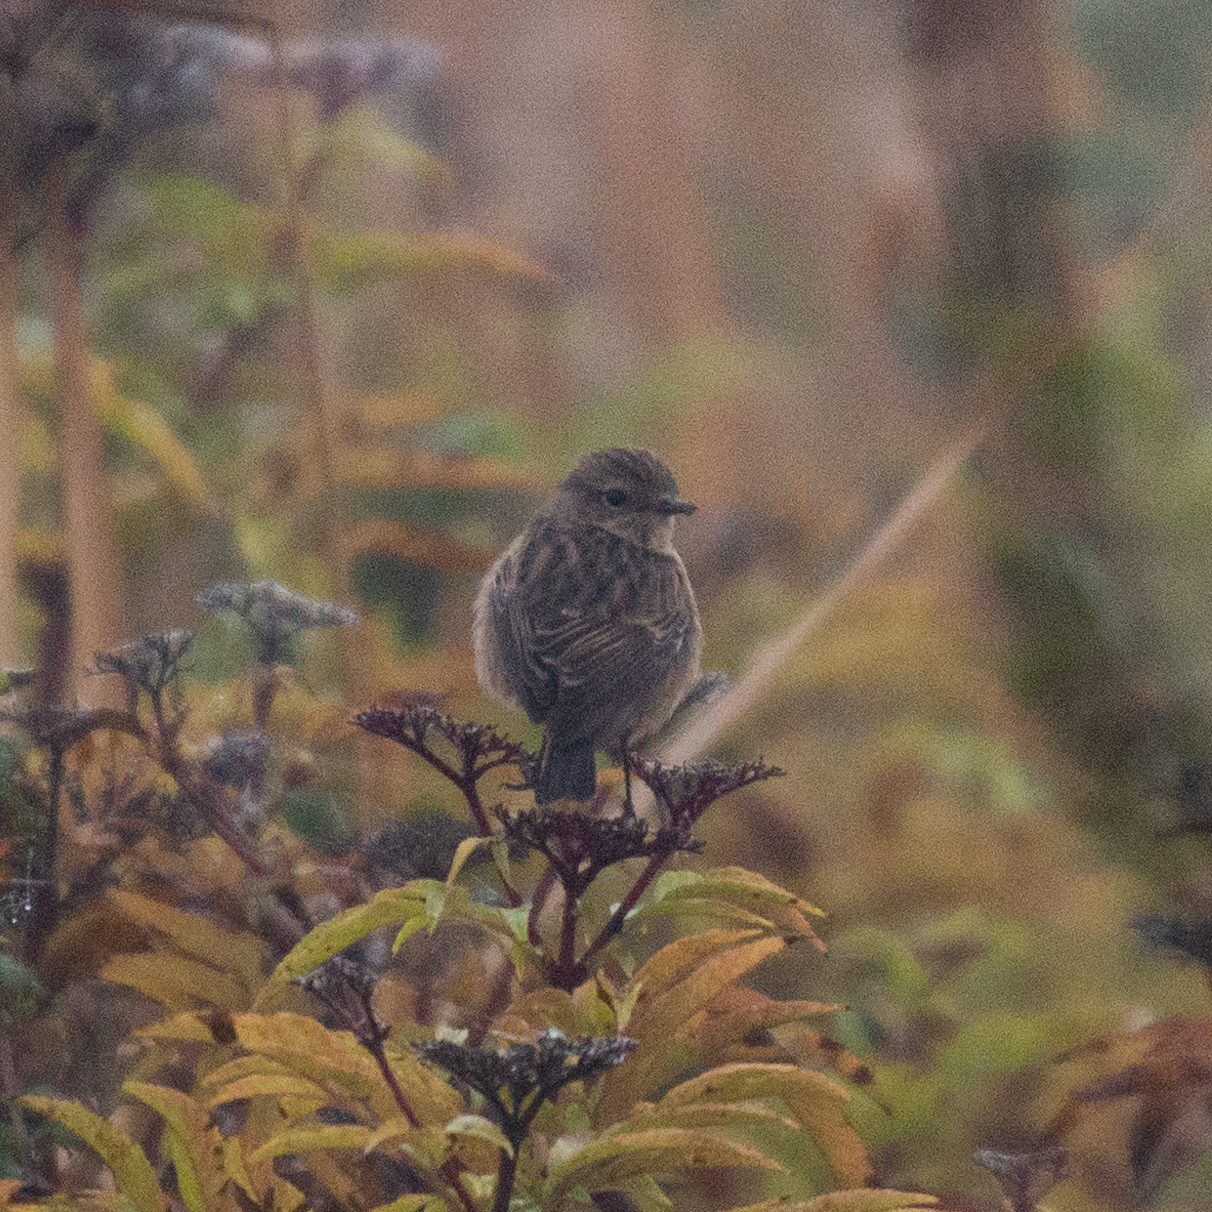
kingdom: Animalia
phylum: Chordata
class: Aves
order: Passeriformes
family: Muscicapidae
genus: Saxicola
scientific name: Saxicola rubicola
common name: European stonechat
